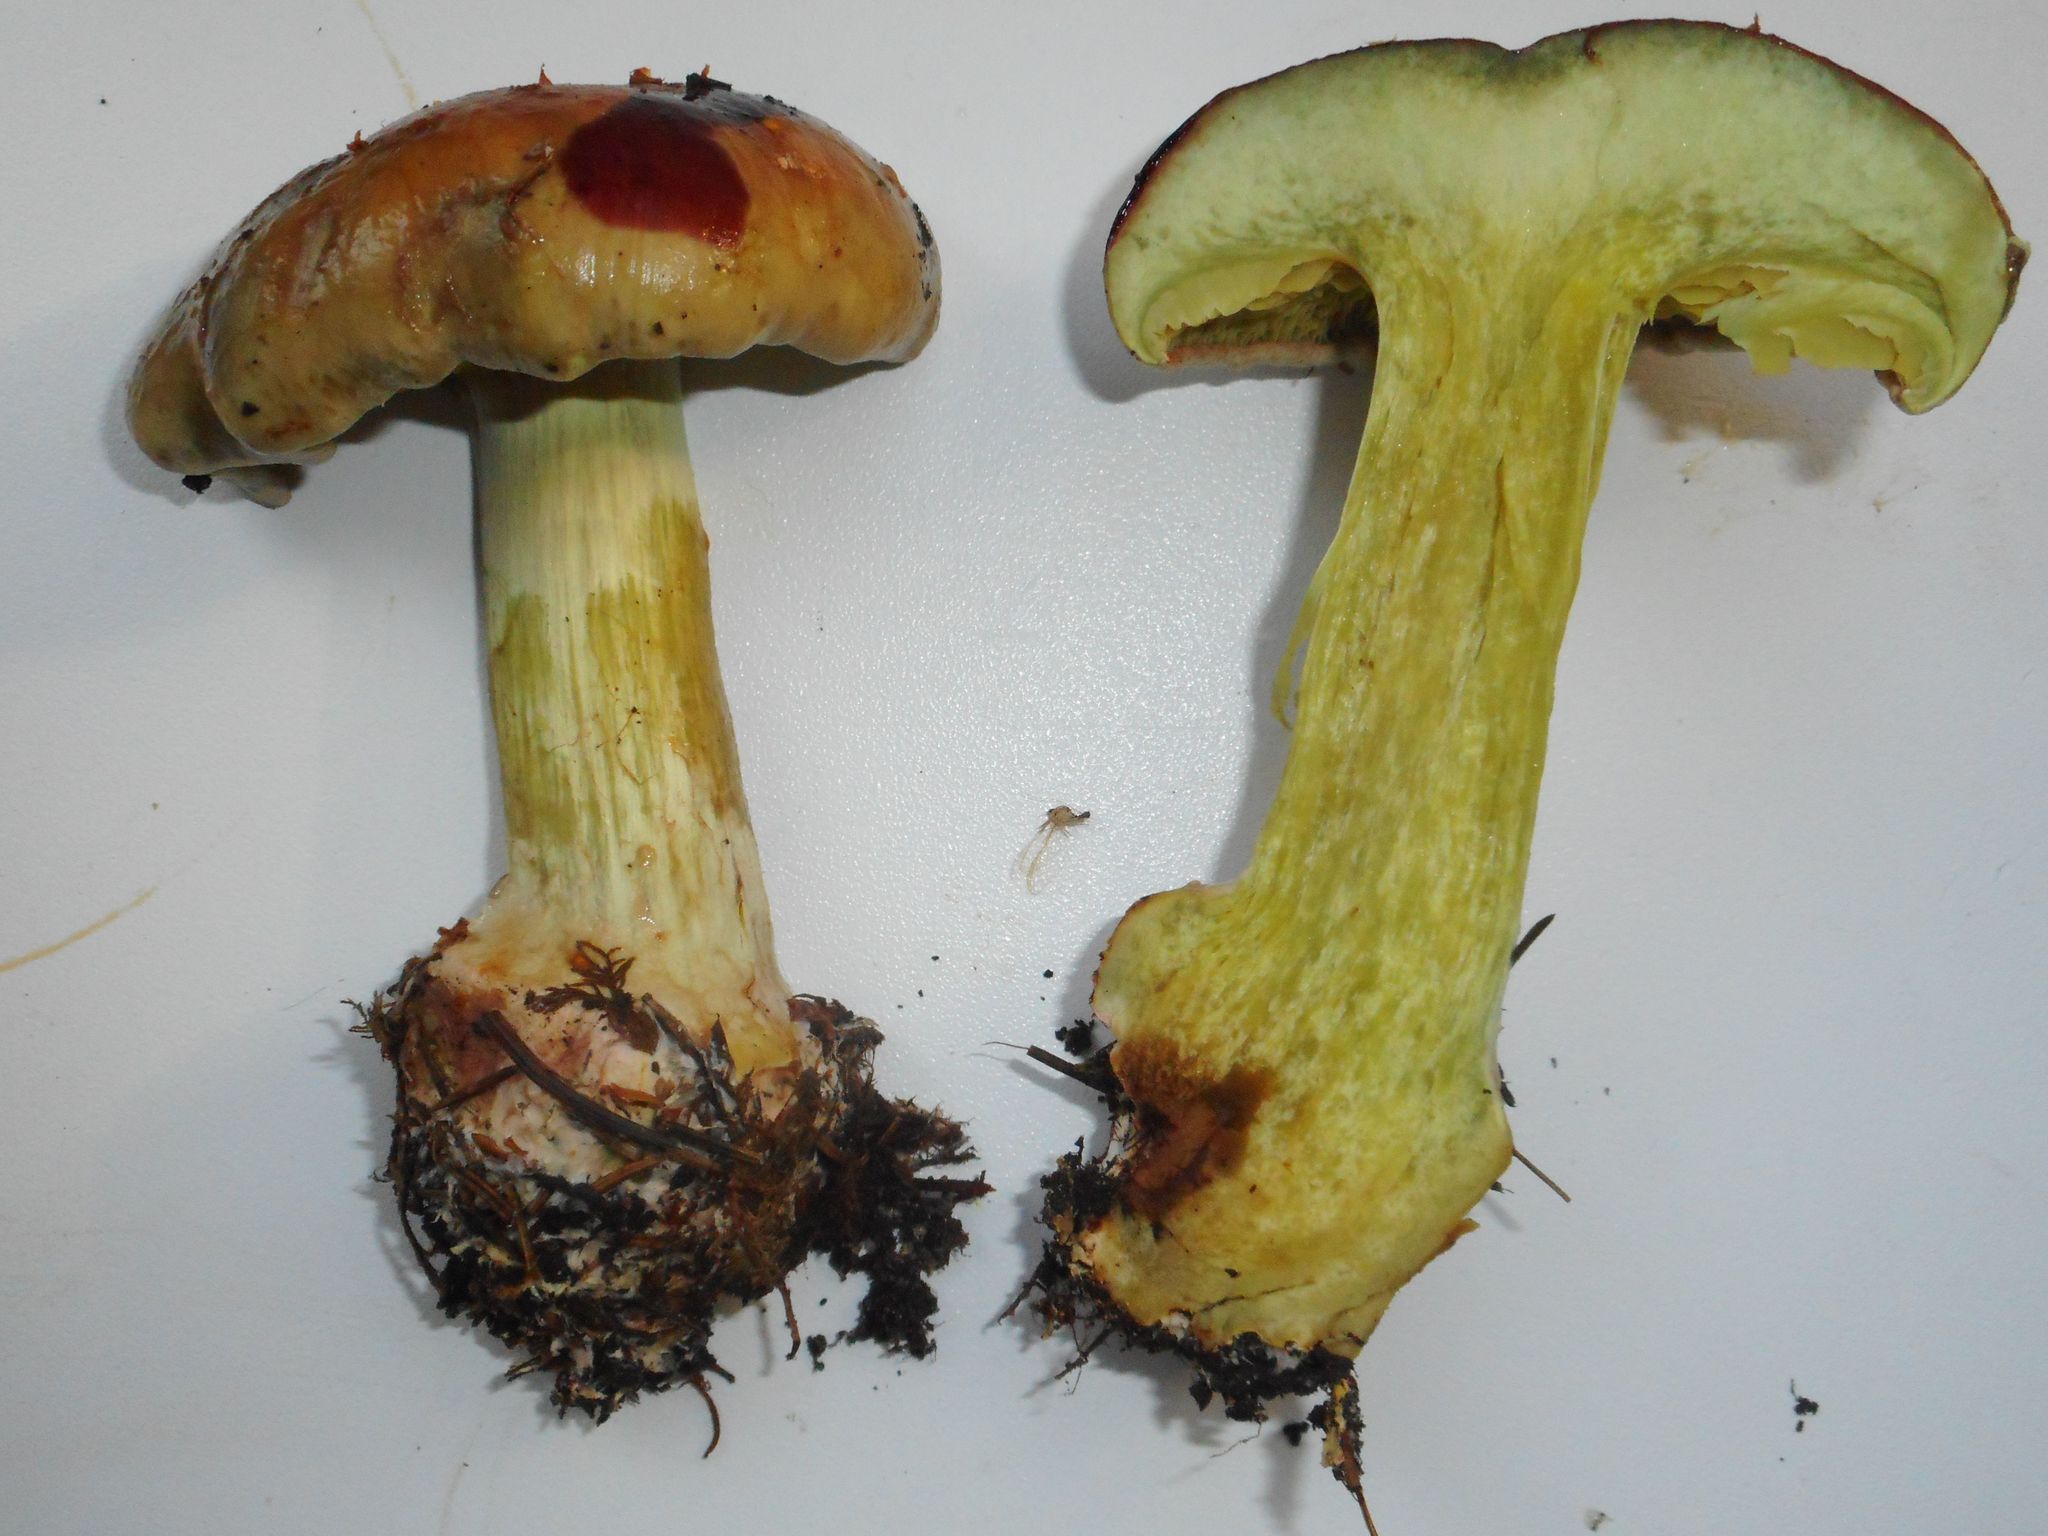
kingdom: Fungi
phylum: Basidiomycota
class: Agaricomycetes
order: Agaricales
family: Cortinariaceae
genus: Calonarius
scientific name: Calonarius odorifer
